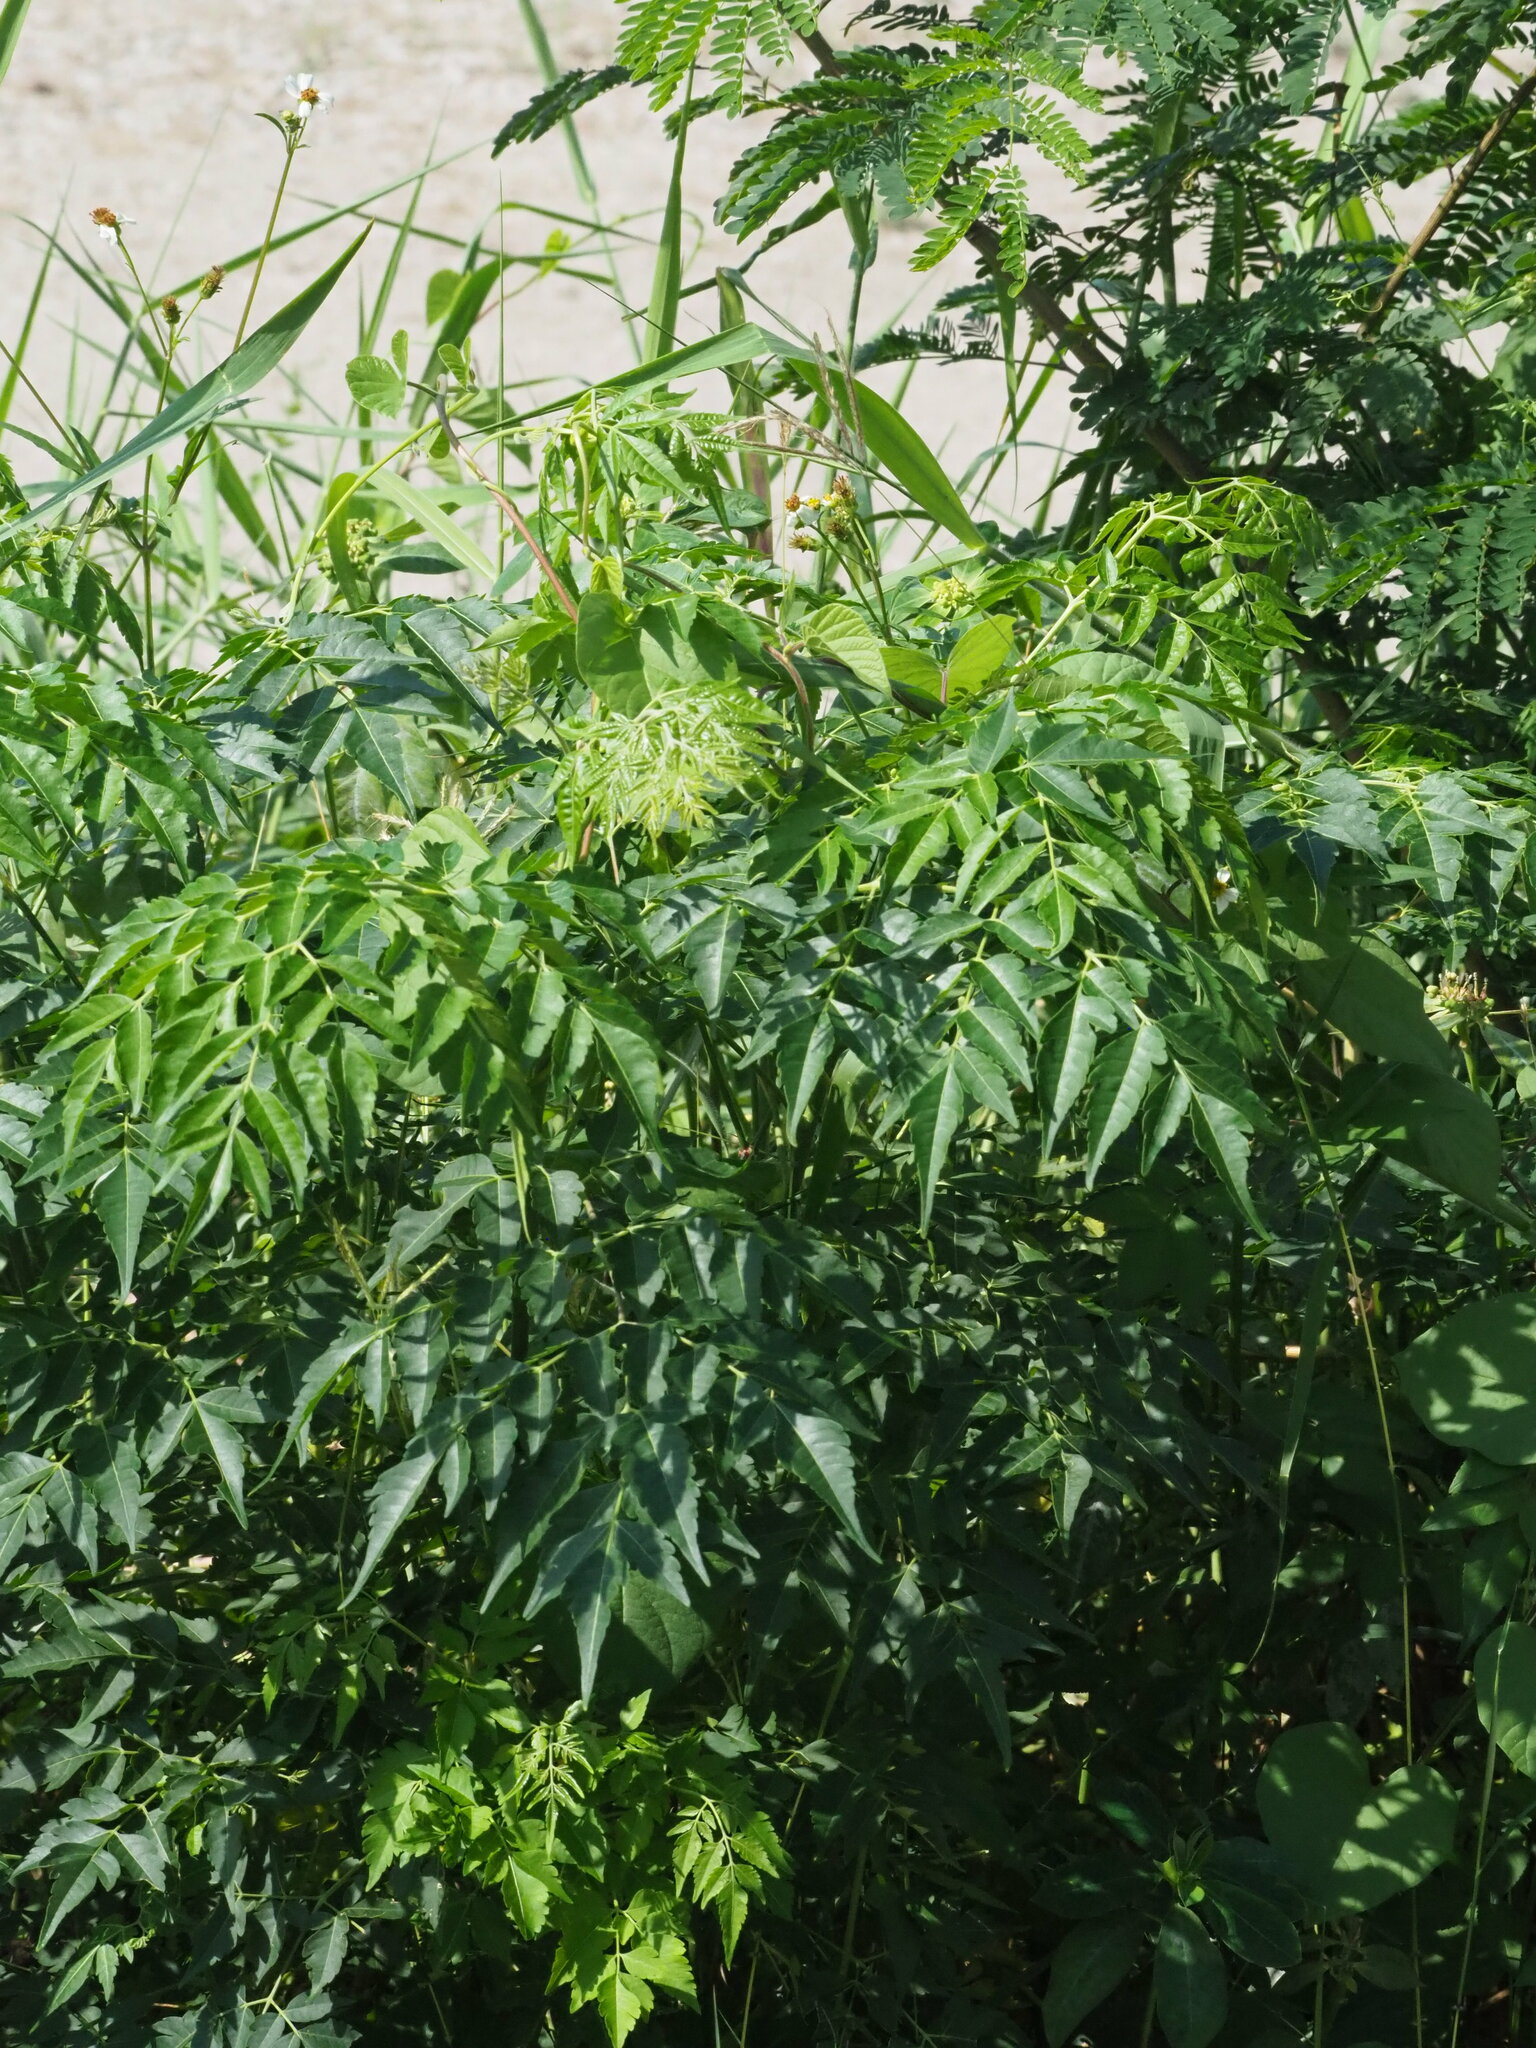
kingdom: Plantae
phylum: Tracheophyta
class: Magnoliopsida
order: Sapindales
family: Meliaceae
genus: Melia
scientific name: Melia azedarach
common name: Chinaberrytree
